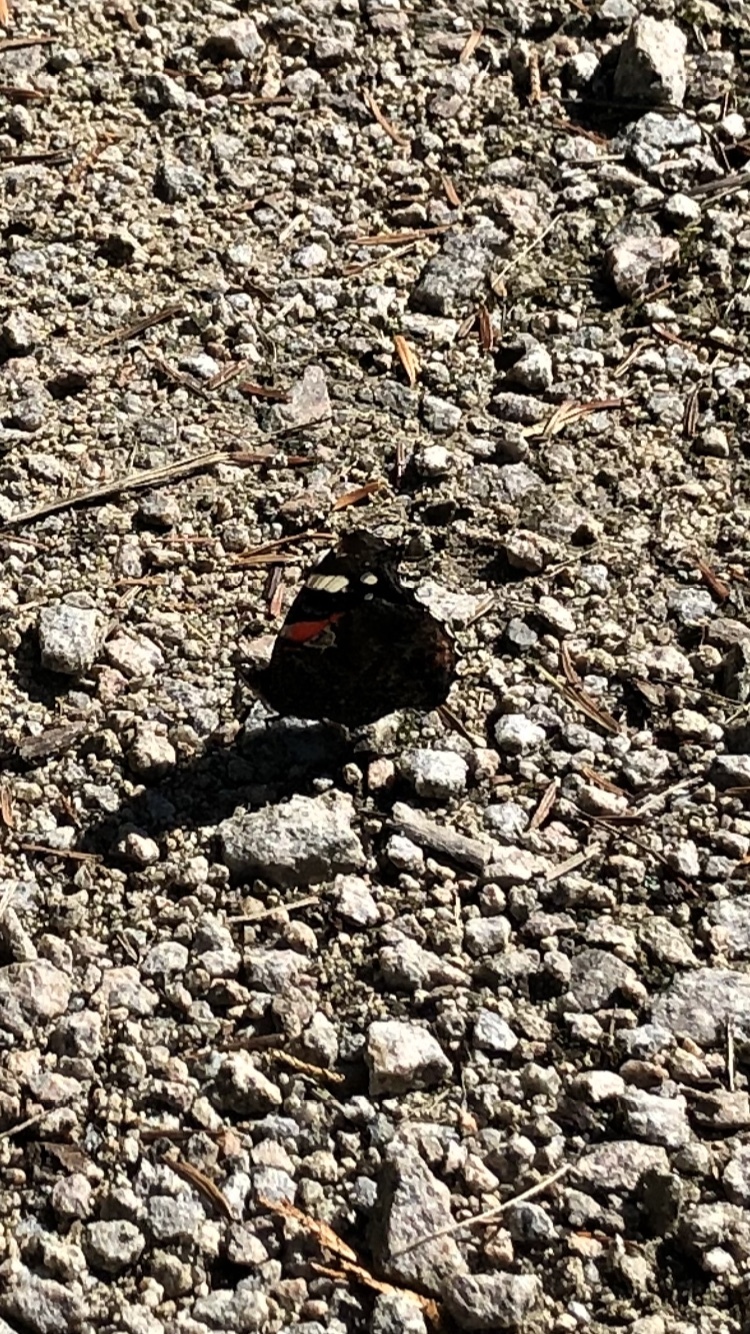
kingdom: Animalia
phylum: Arthropoda
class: Insecta
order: Lepidoptera
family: Nymphalidae
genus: Vanessa
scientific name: Vanessa atalanta
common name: Red admiral
